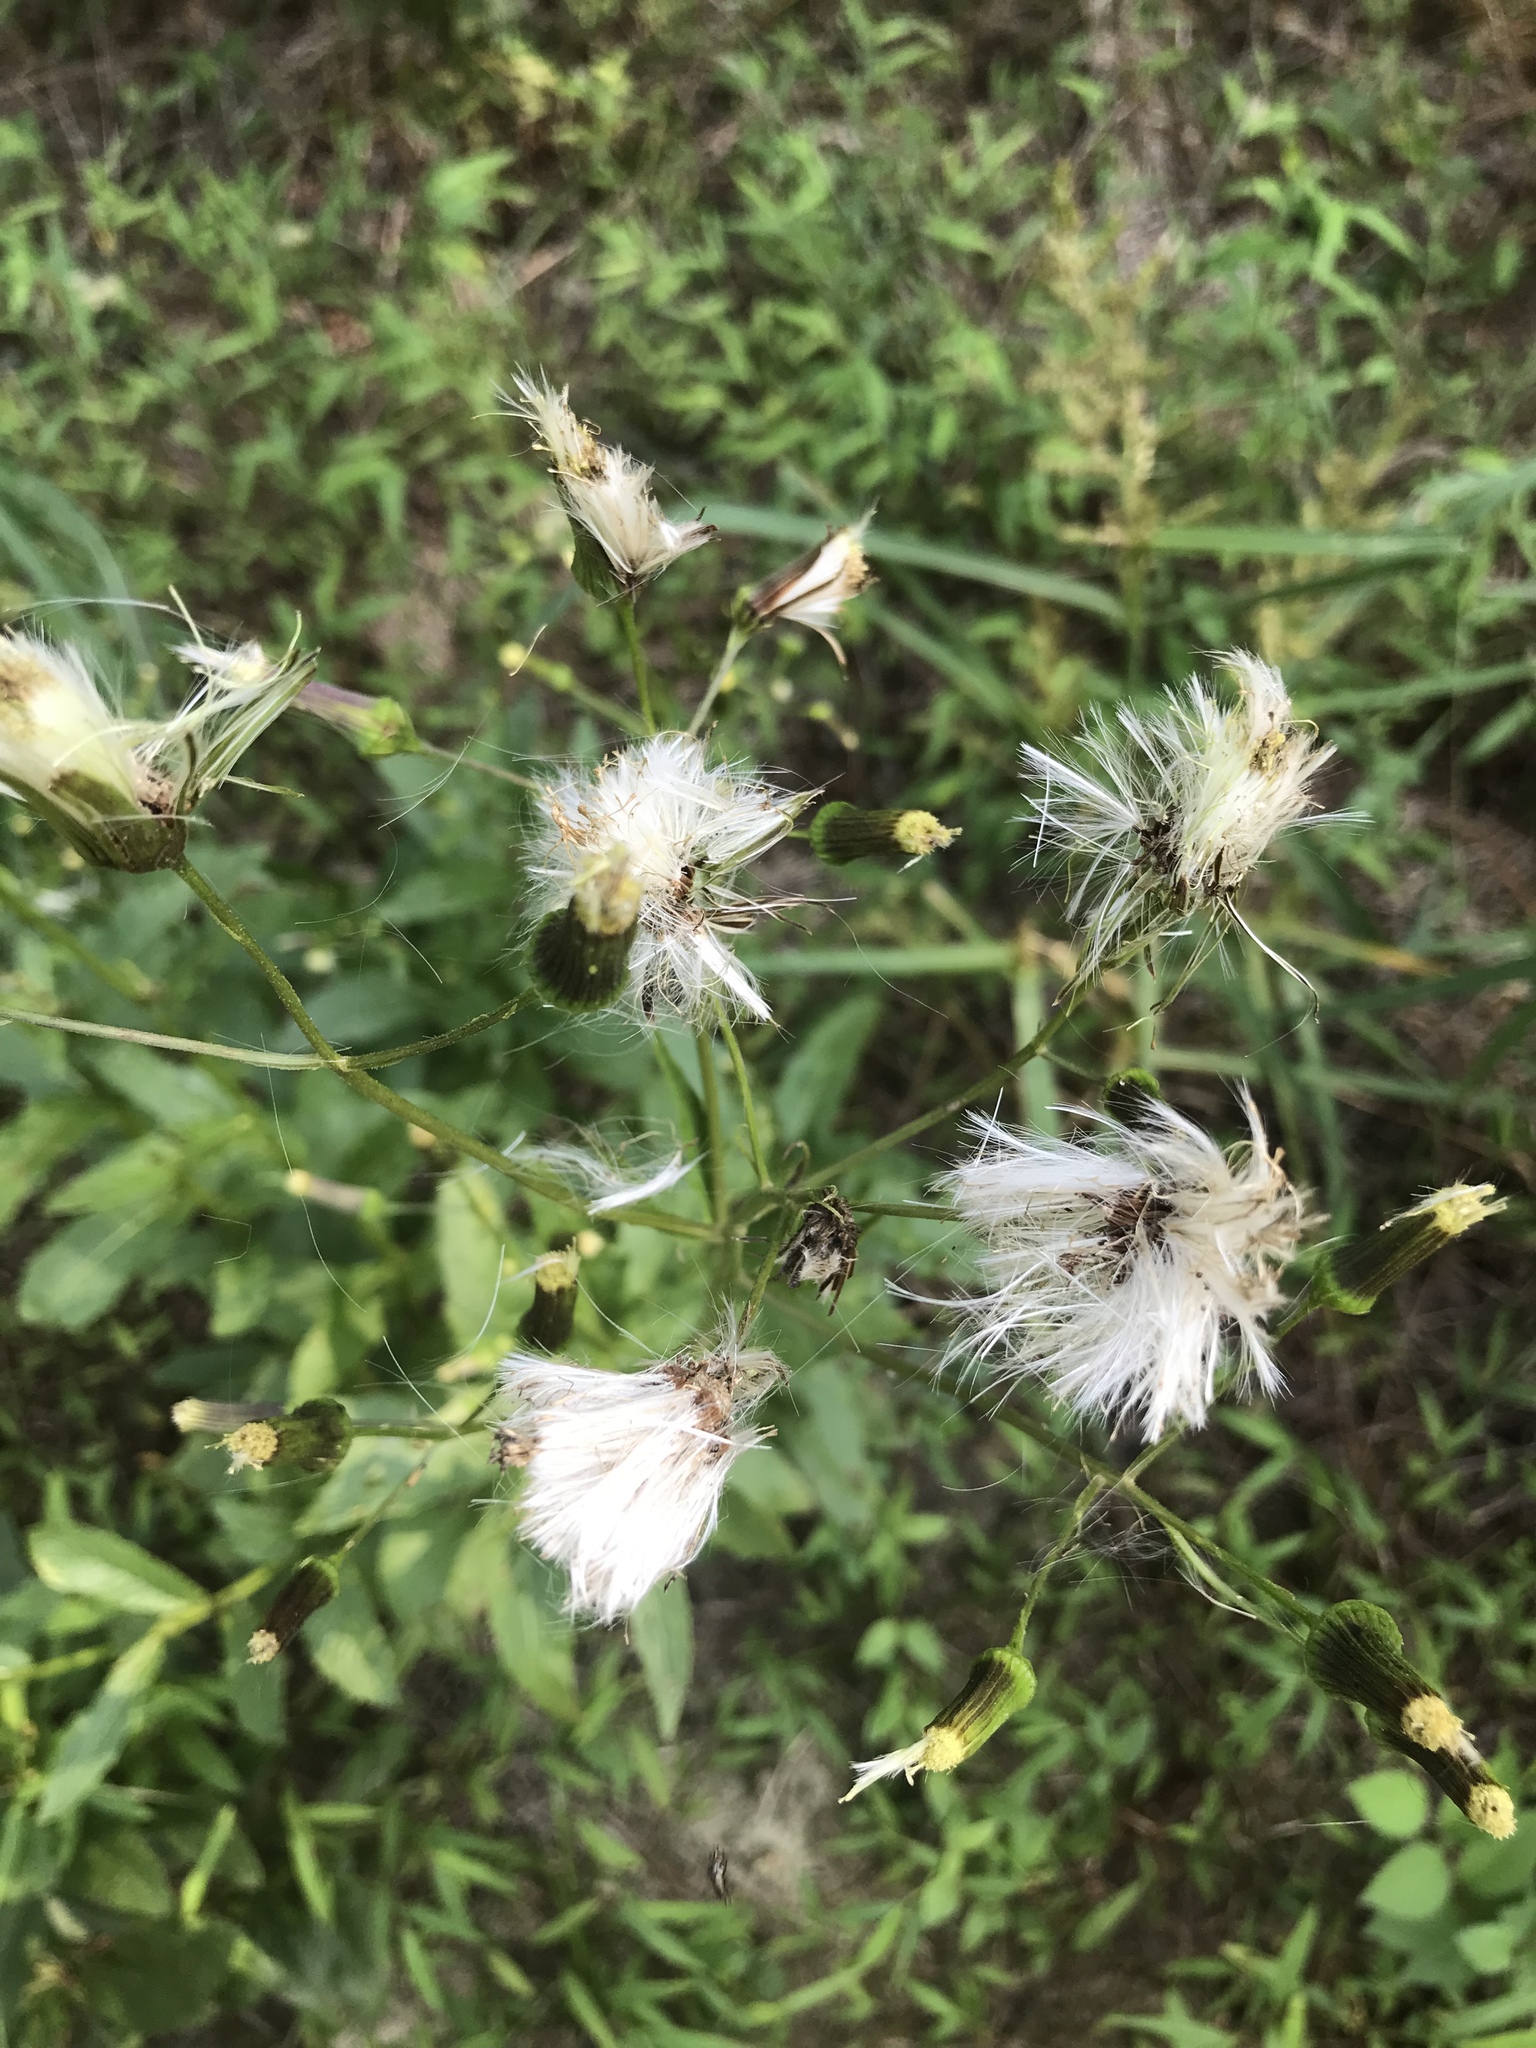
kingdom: Plantae
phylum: Tracheophyta
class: Magnoliopsida
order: Asterales
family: Asteraceae
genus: Erechtites
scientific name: Erechtites hieraciifolius
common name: American burnweed
